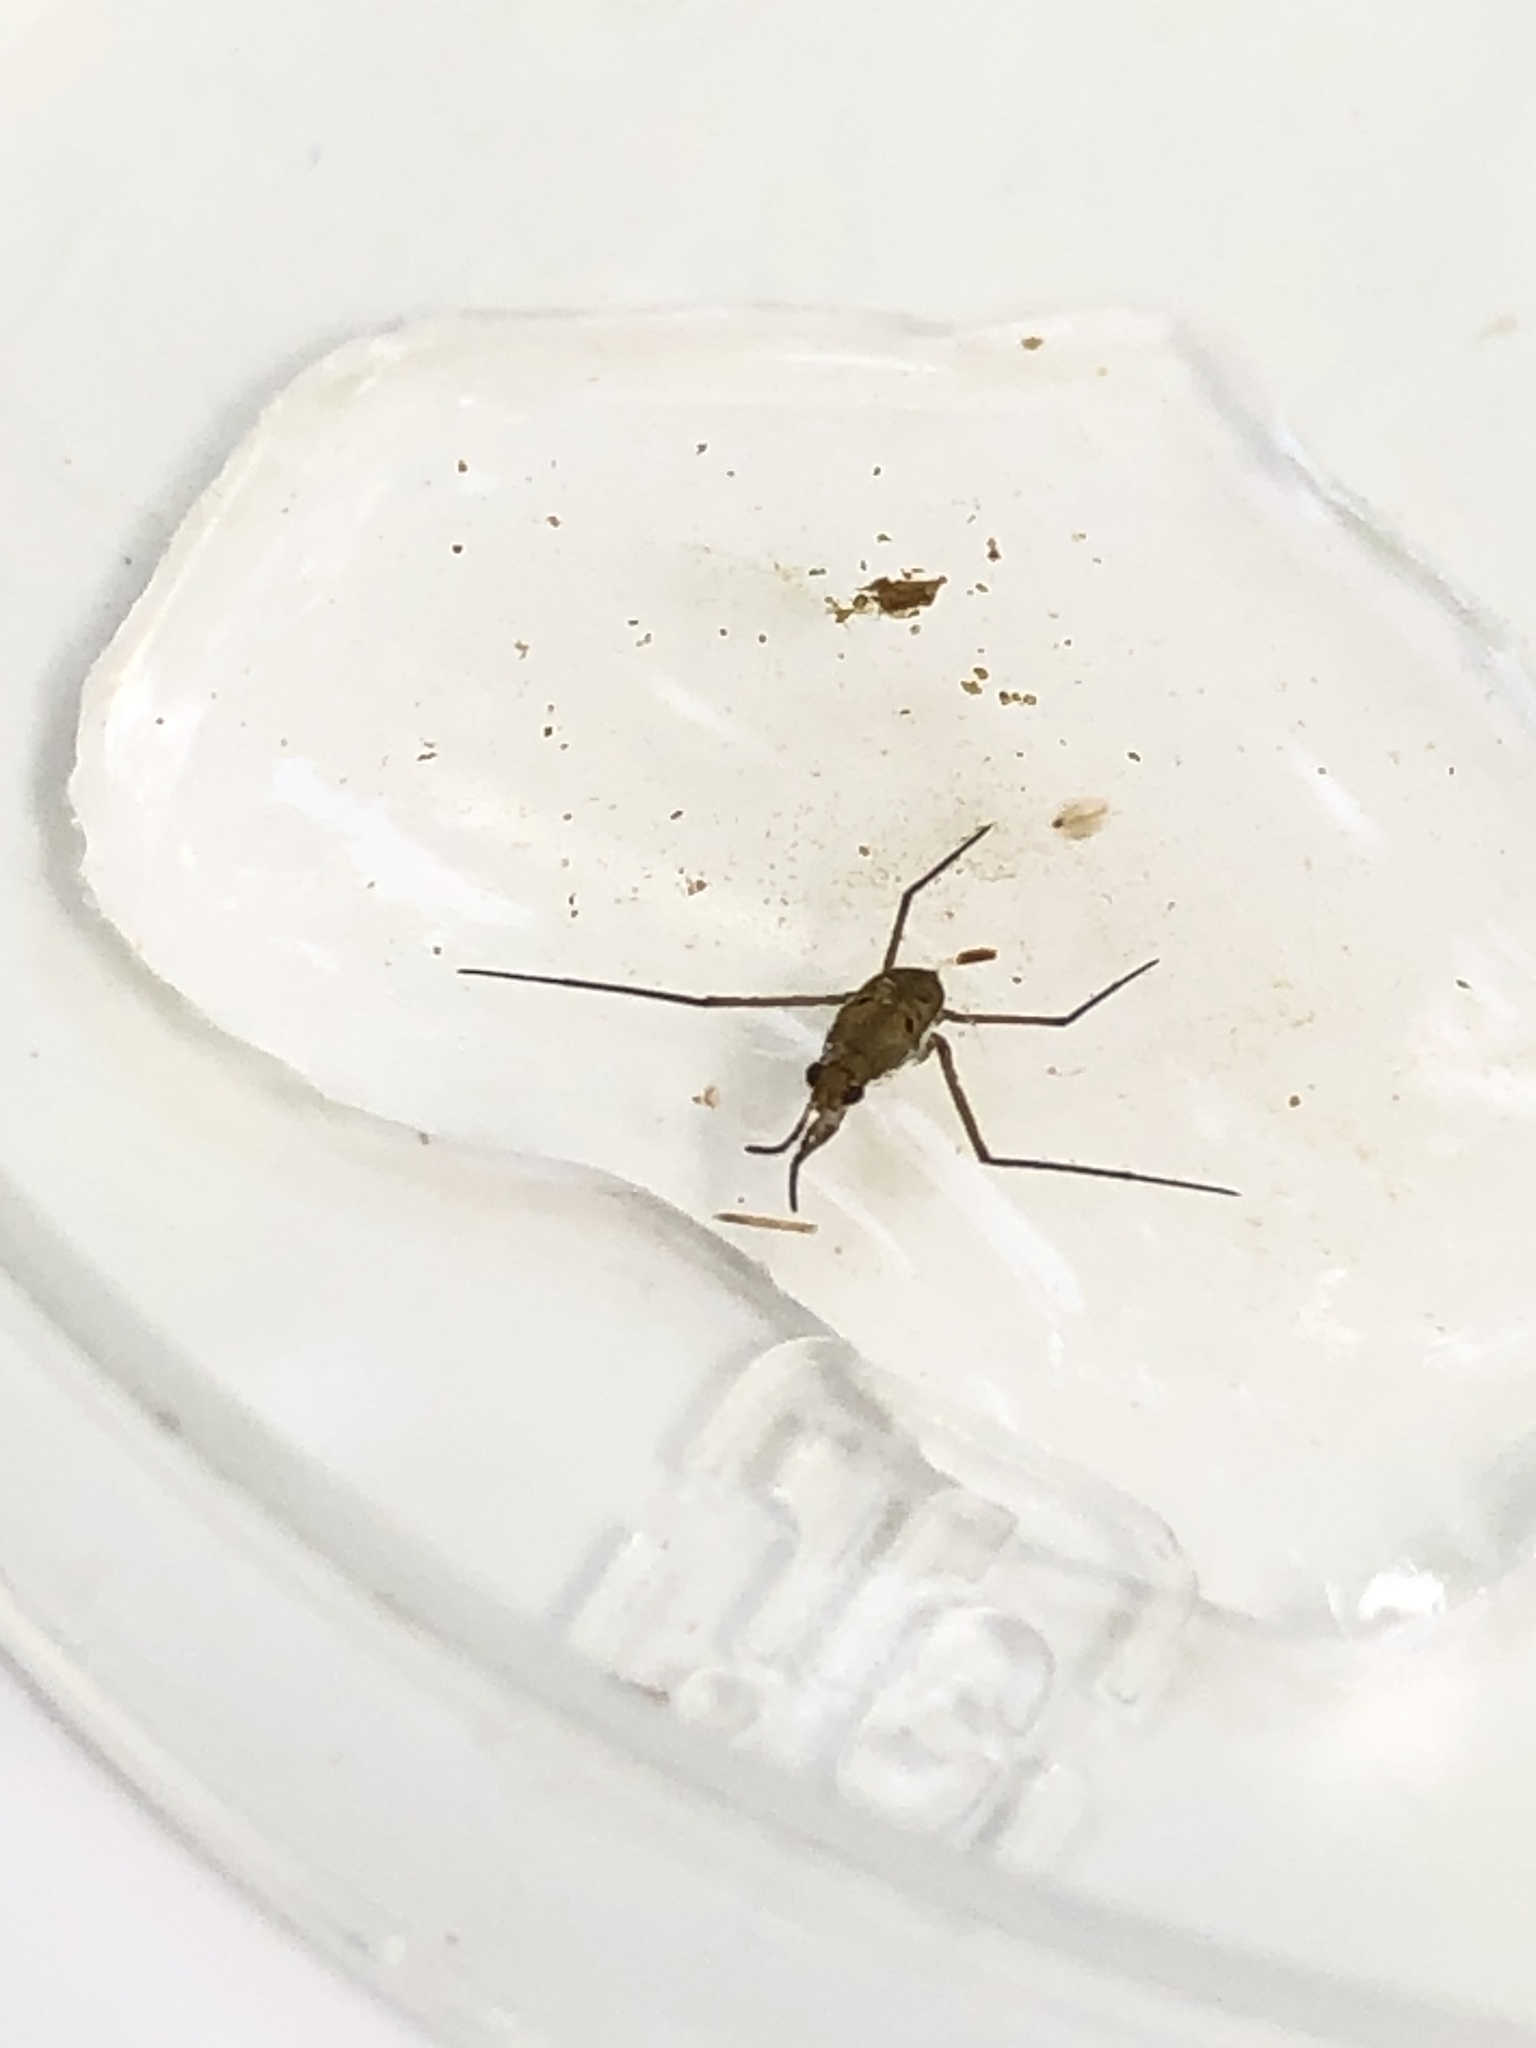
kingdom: Animalia
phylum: Arthropoda
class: Insecta
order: Hemiptera
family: Gerridae
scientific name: Gerridae
